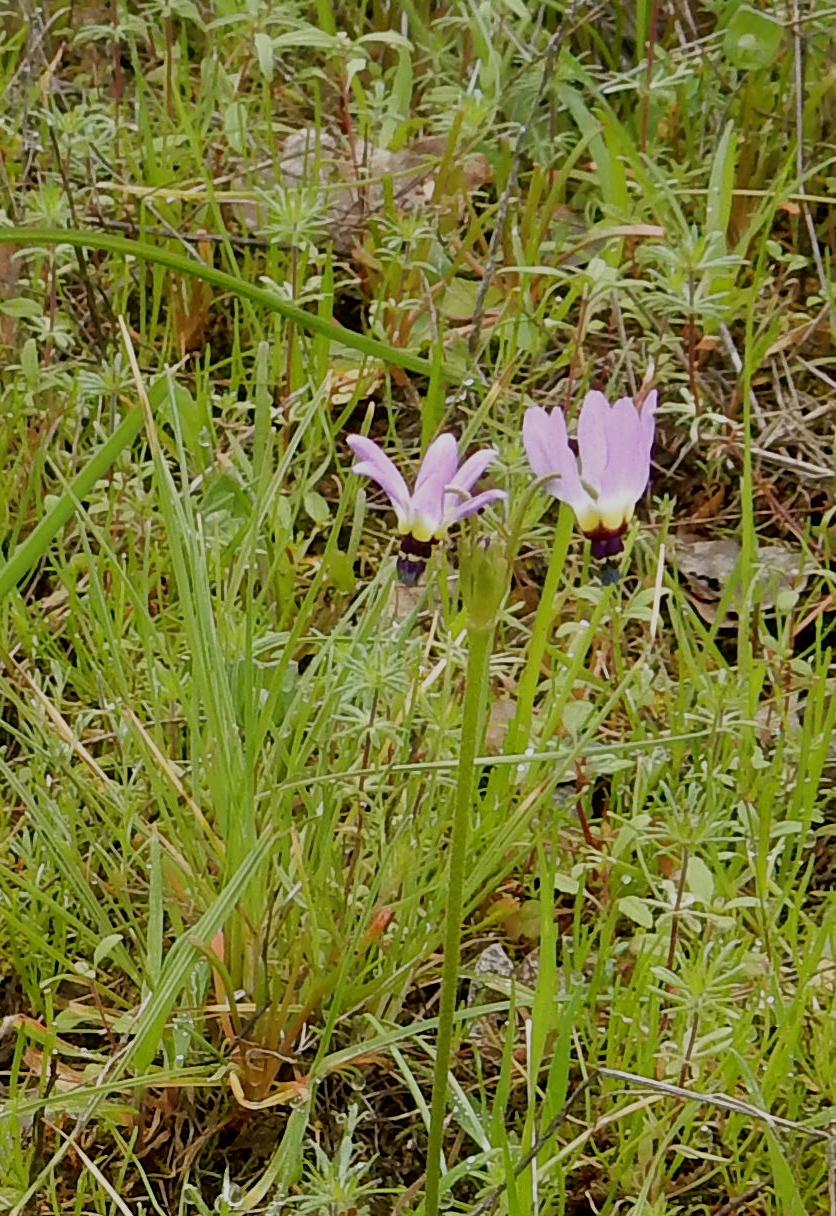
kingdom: Plantae
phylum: Tracheophyta
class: Magnoliopsida
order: Ericales
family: Primulaceae
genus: Dodecatheon
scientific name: Dodecatheon clevelandii
